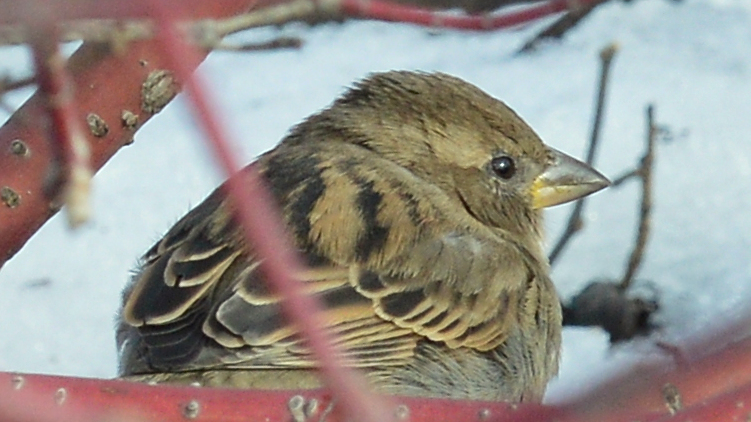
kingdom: Animalia
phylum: Chordata
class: Aves
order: Passeriformes
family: Passeridae
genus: Passer
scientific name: Passer domesticus
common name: House sparrow
